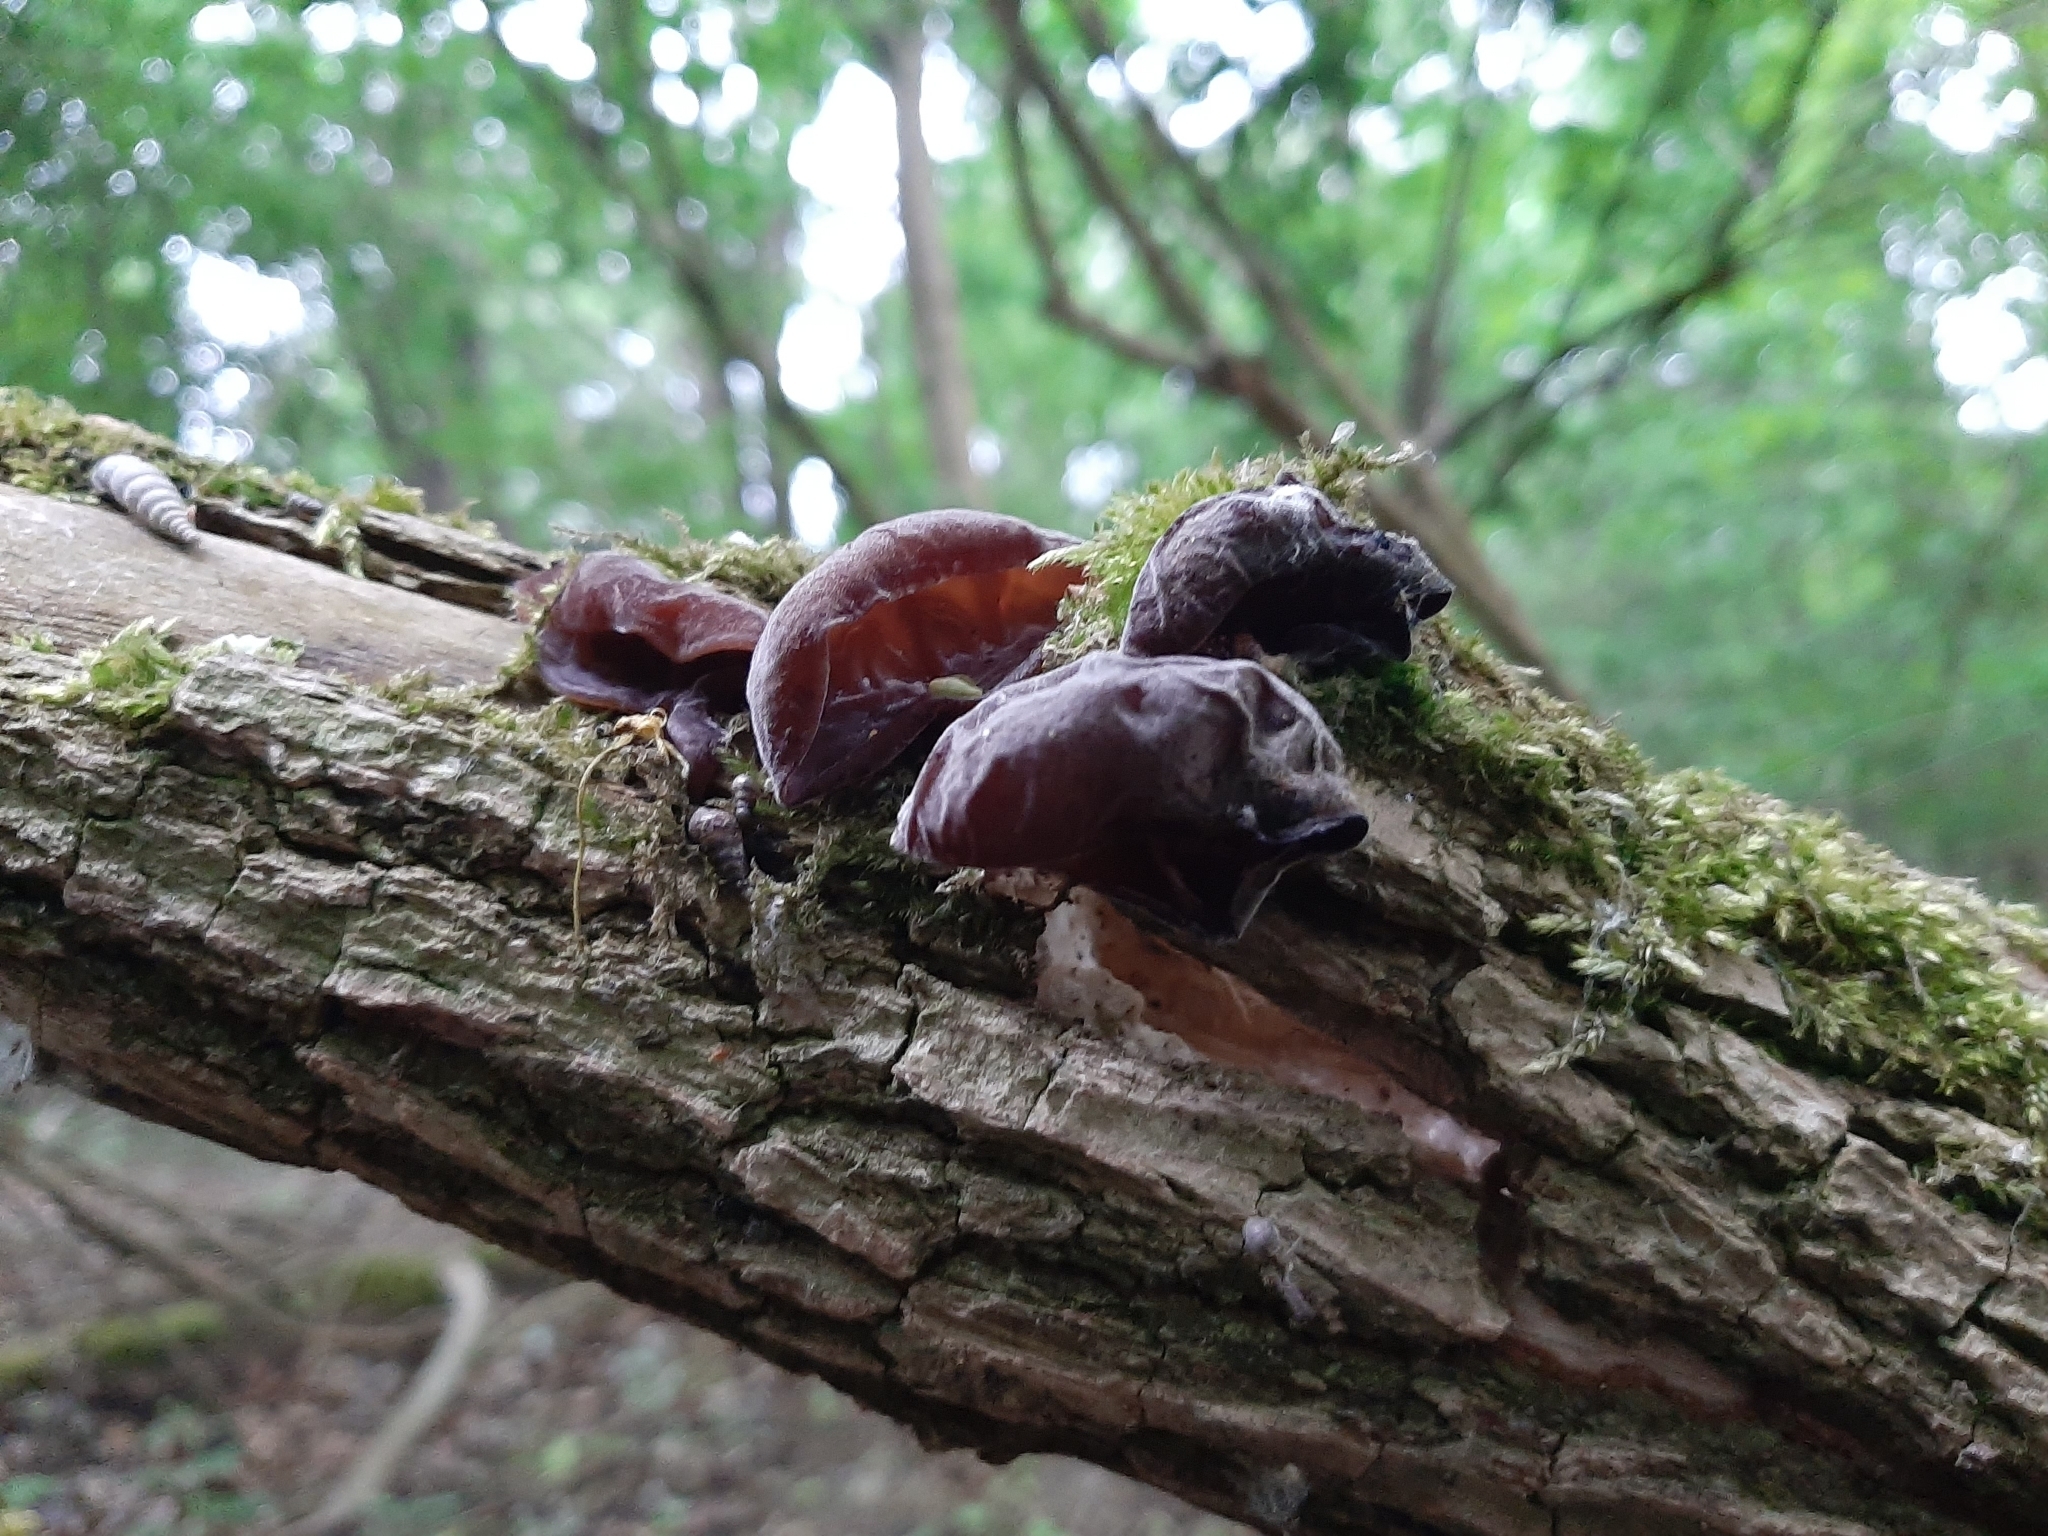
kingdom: Fungi
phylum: Basidiomycota
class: Agaricomycetes
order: Auriculariales
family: Auriculariaceae
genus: Auricularia
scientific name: Auricularia auricula-judae
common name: Jelly ear
